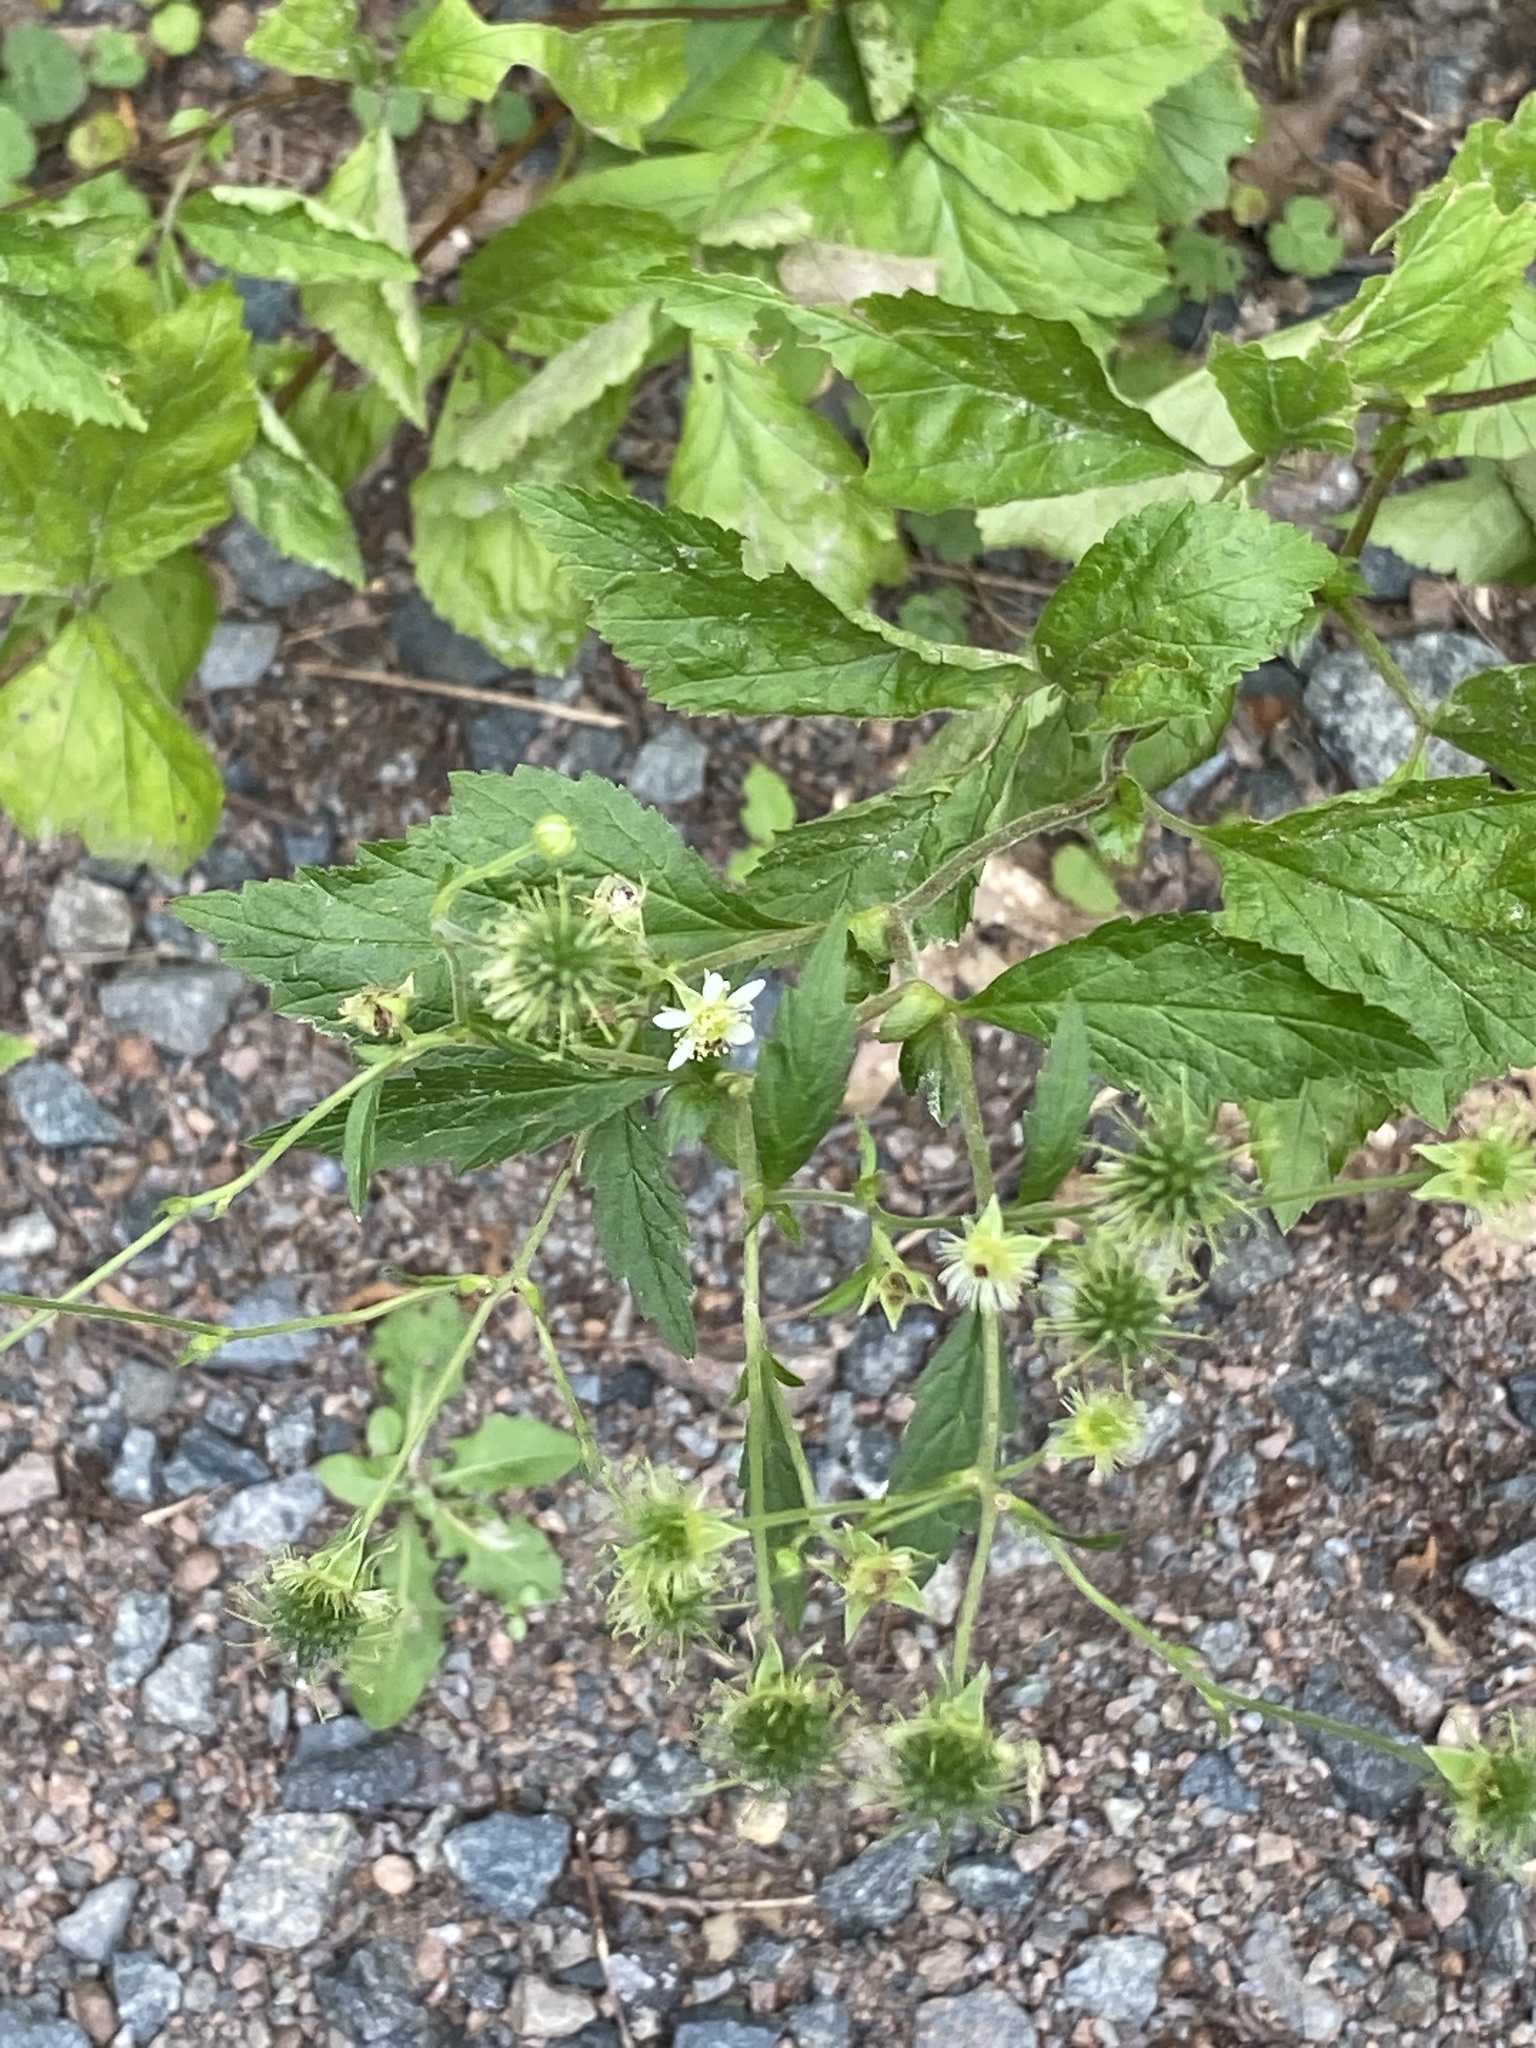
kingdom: Plantae
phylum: Tracheophyta
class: Magnoliopsida
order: Rosales
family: Rosaceae
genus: Geum
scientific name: Geum canadense
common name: White avens
